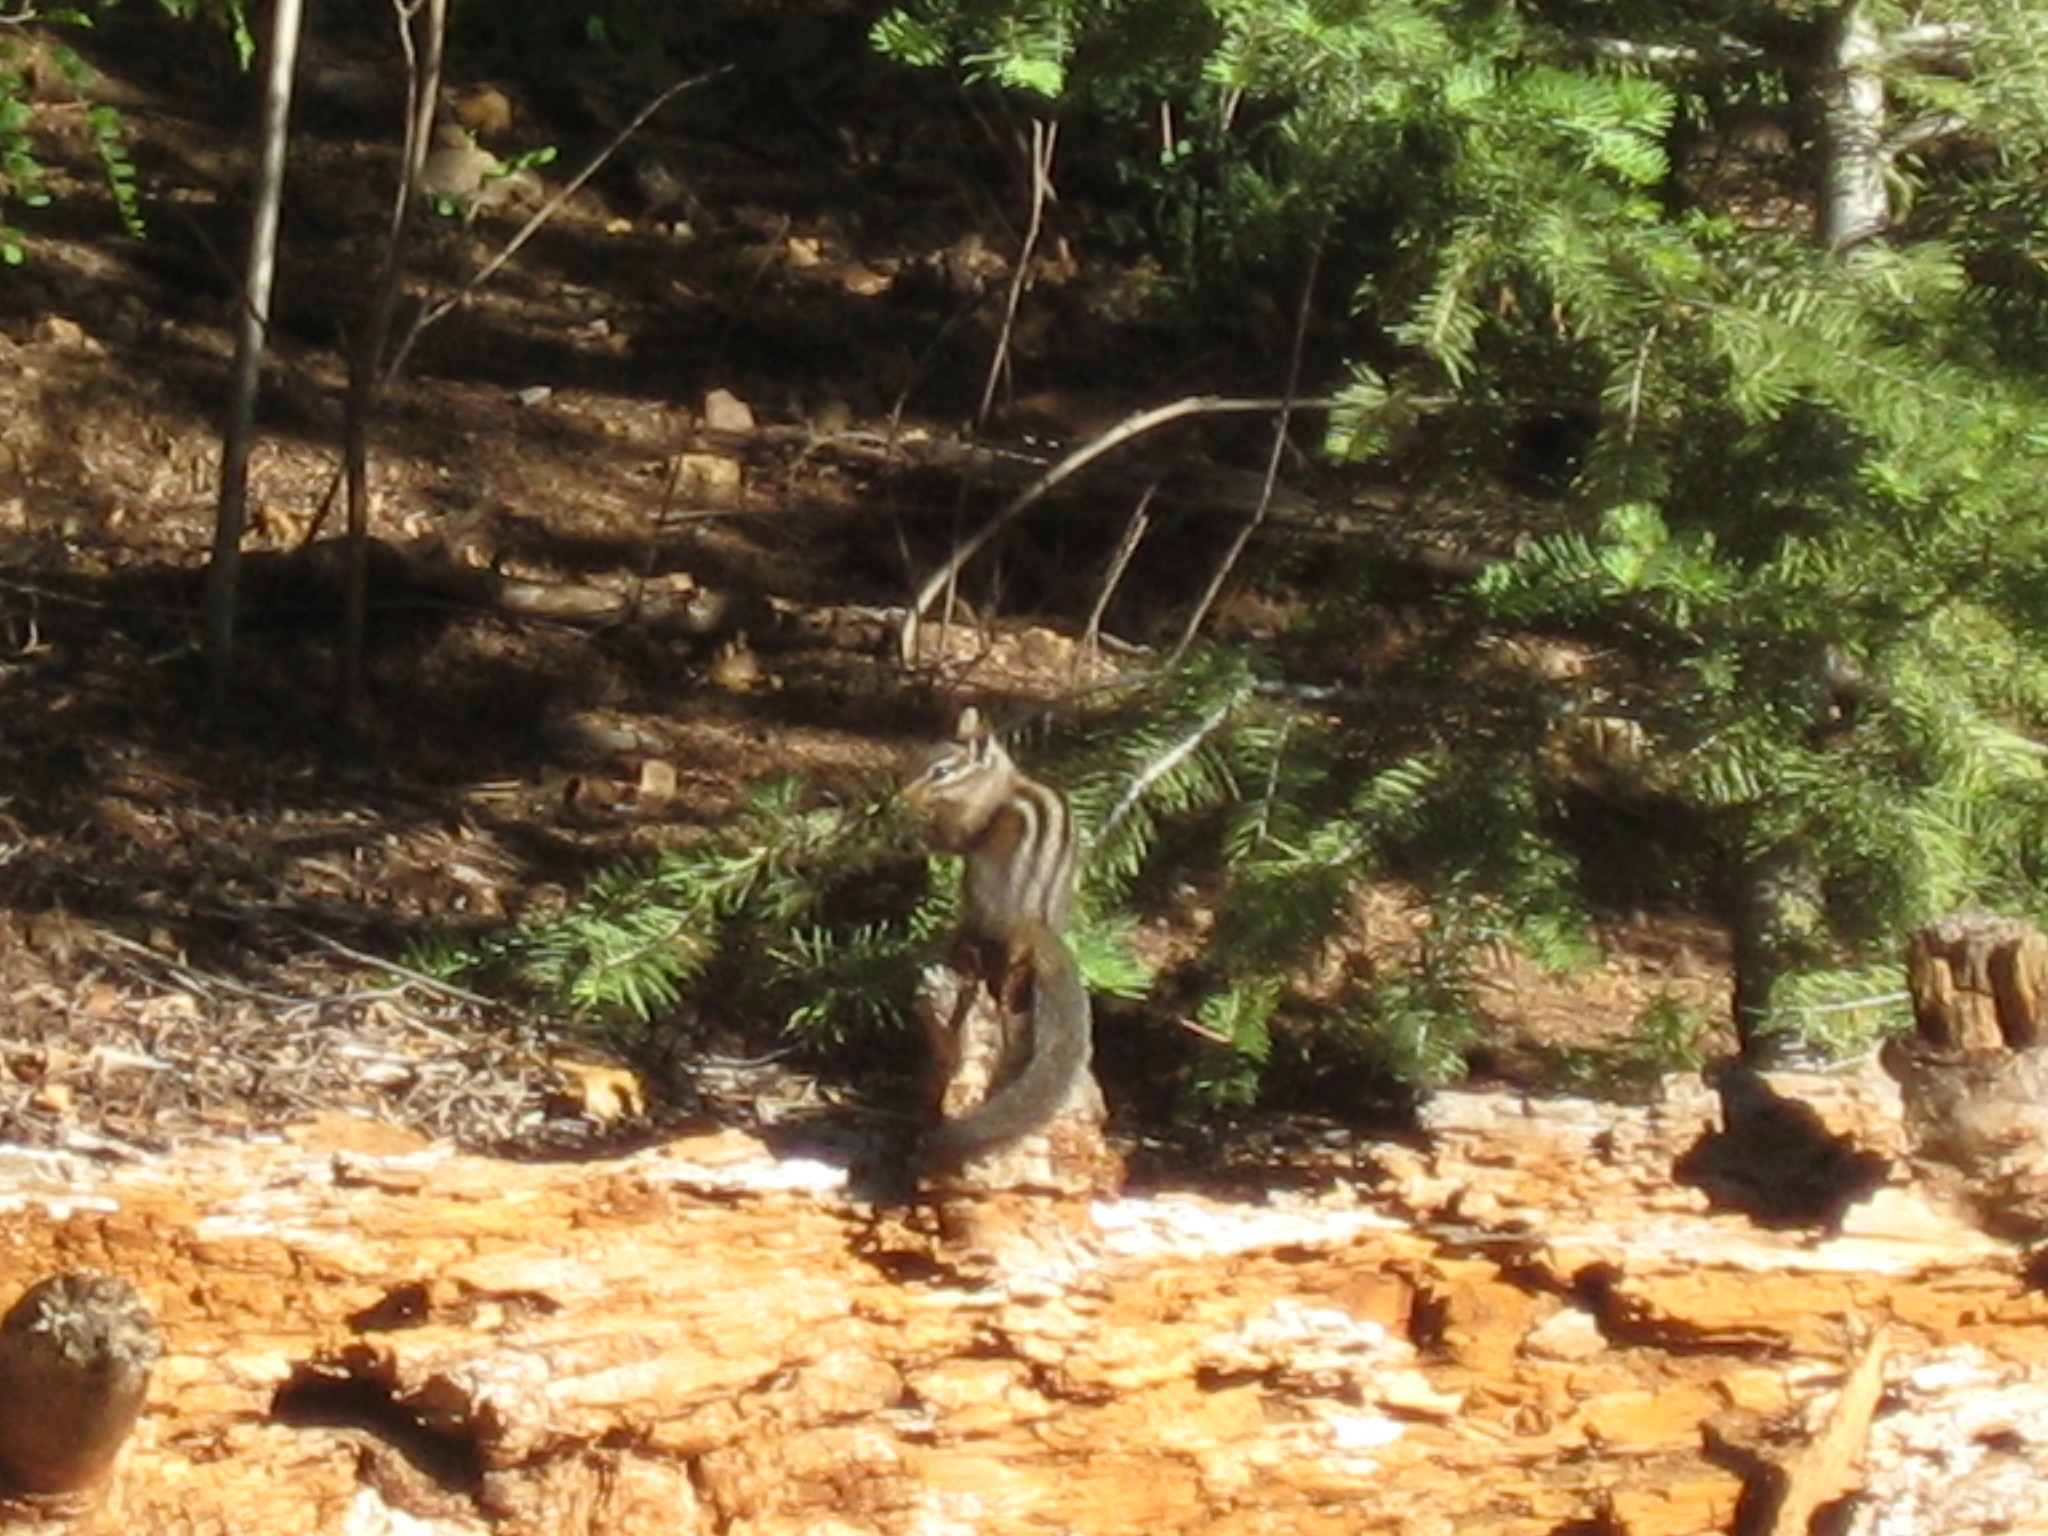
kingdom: Animalia
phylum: Chordata
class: Mammalia
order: Rodentia
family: Sciuridae
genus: Tamias
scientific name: Tamias merriami
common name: Merriam's chipmunk
